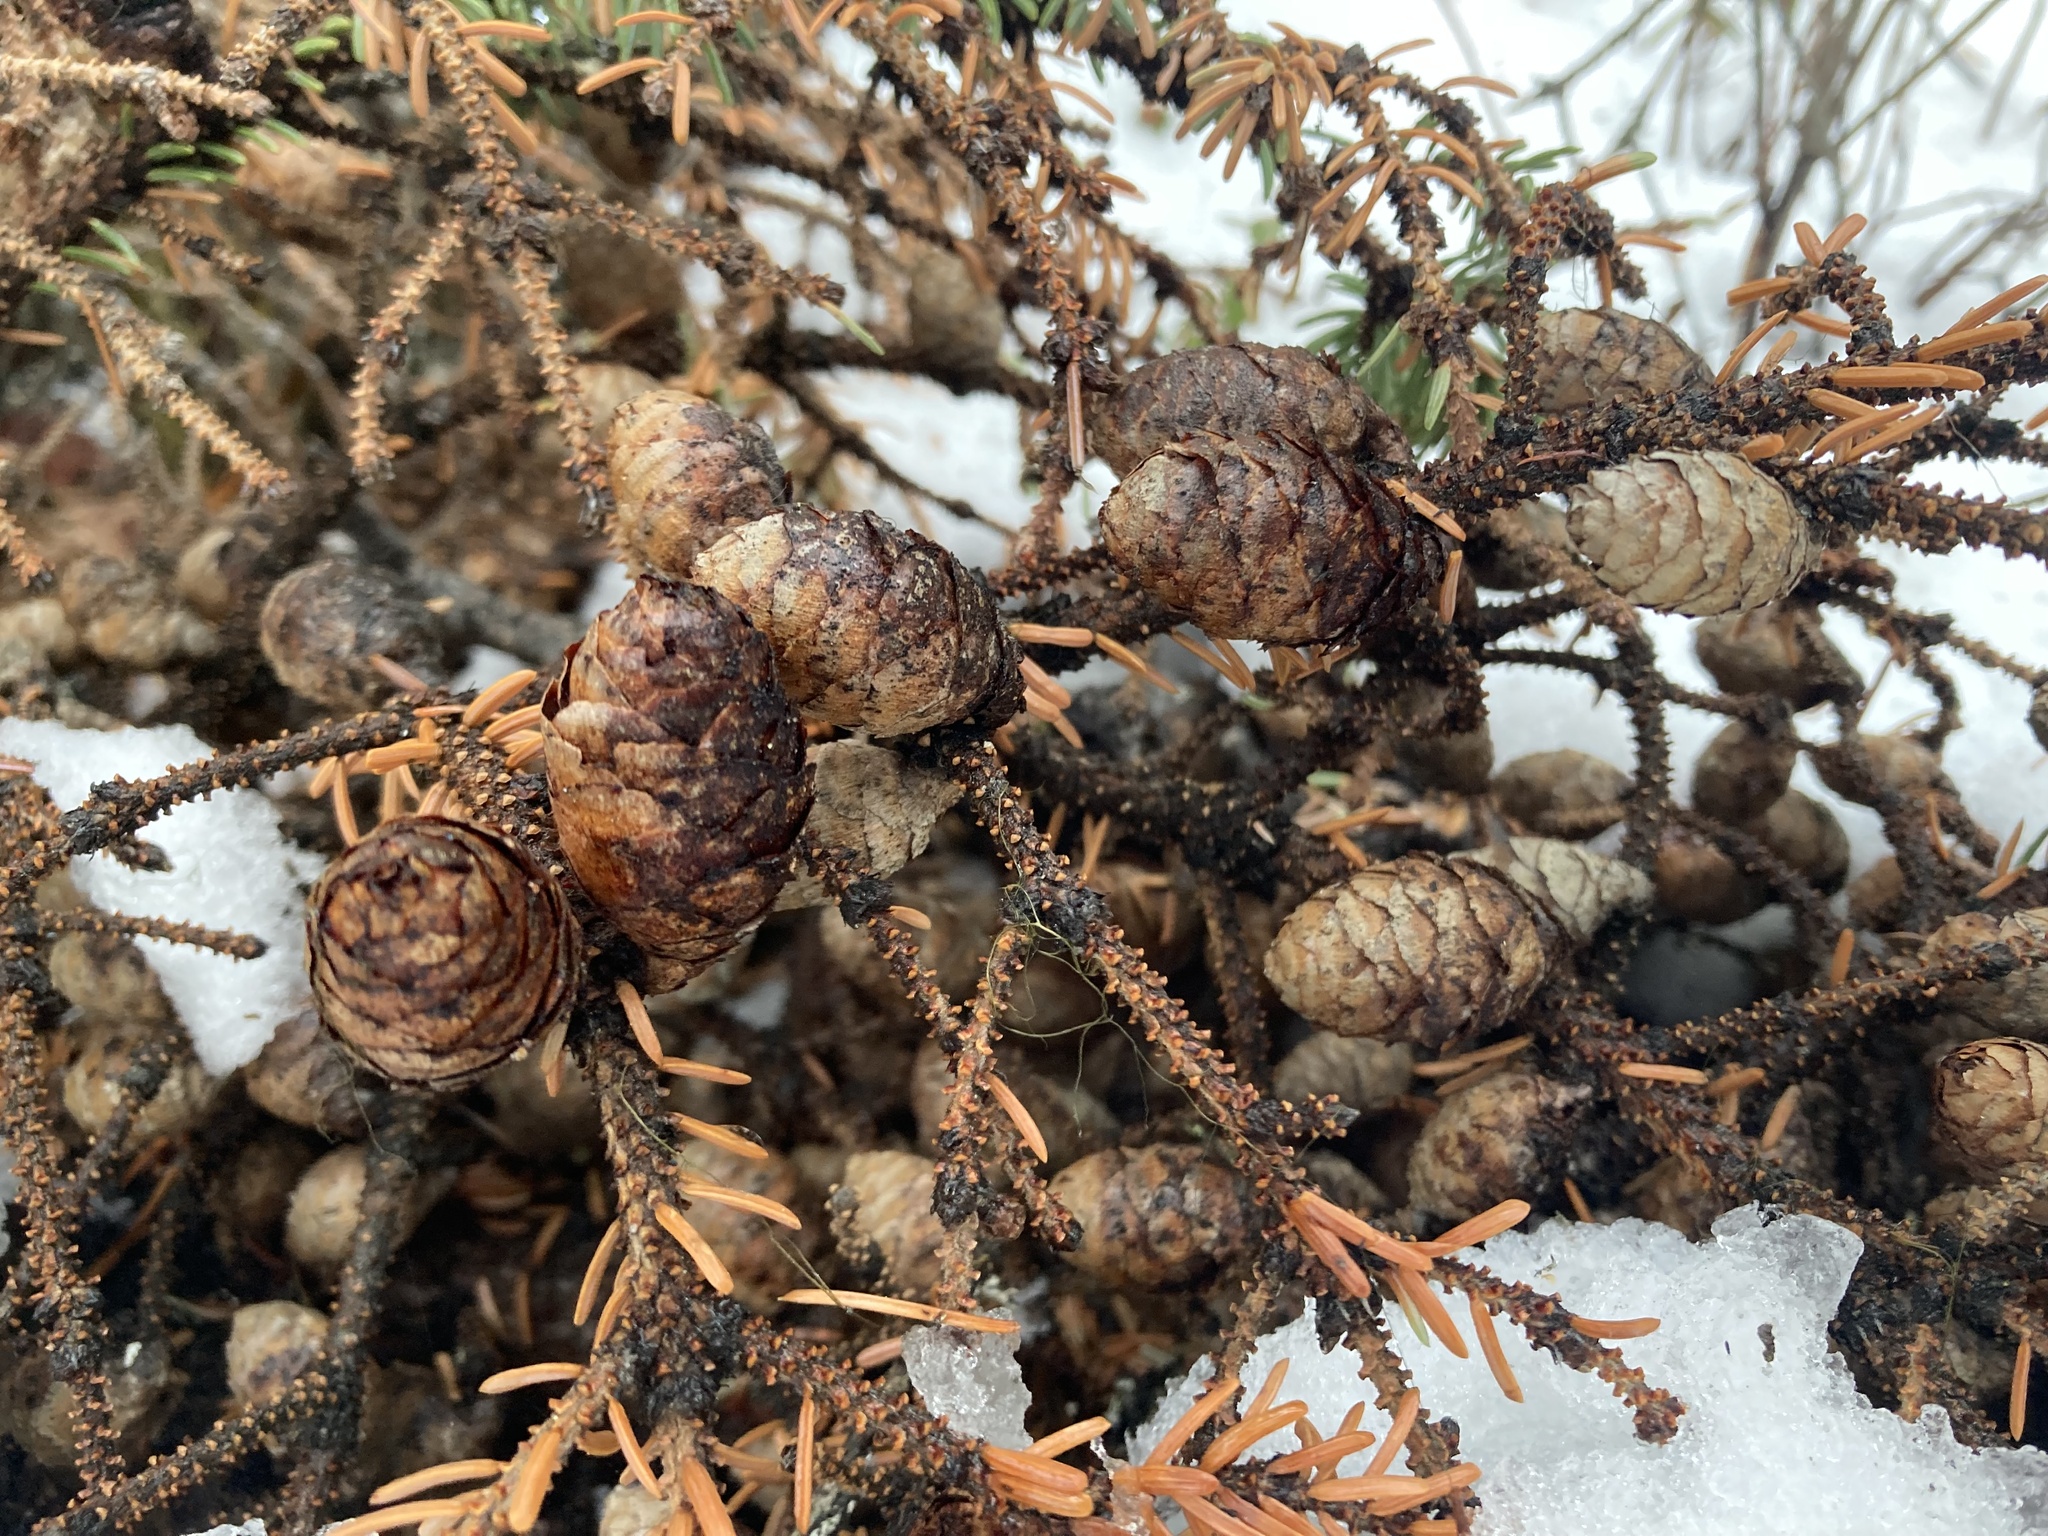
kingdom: Plantae
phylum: Tracheophyta
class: Pinopsida
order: Pinales
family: Pinaceae
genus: Picea
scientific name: Picea mariana
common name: Black spruce
